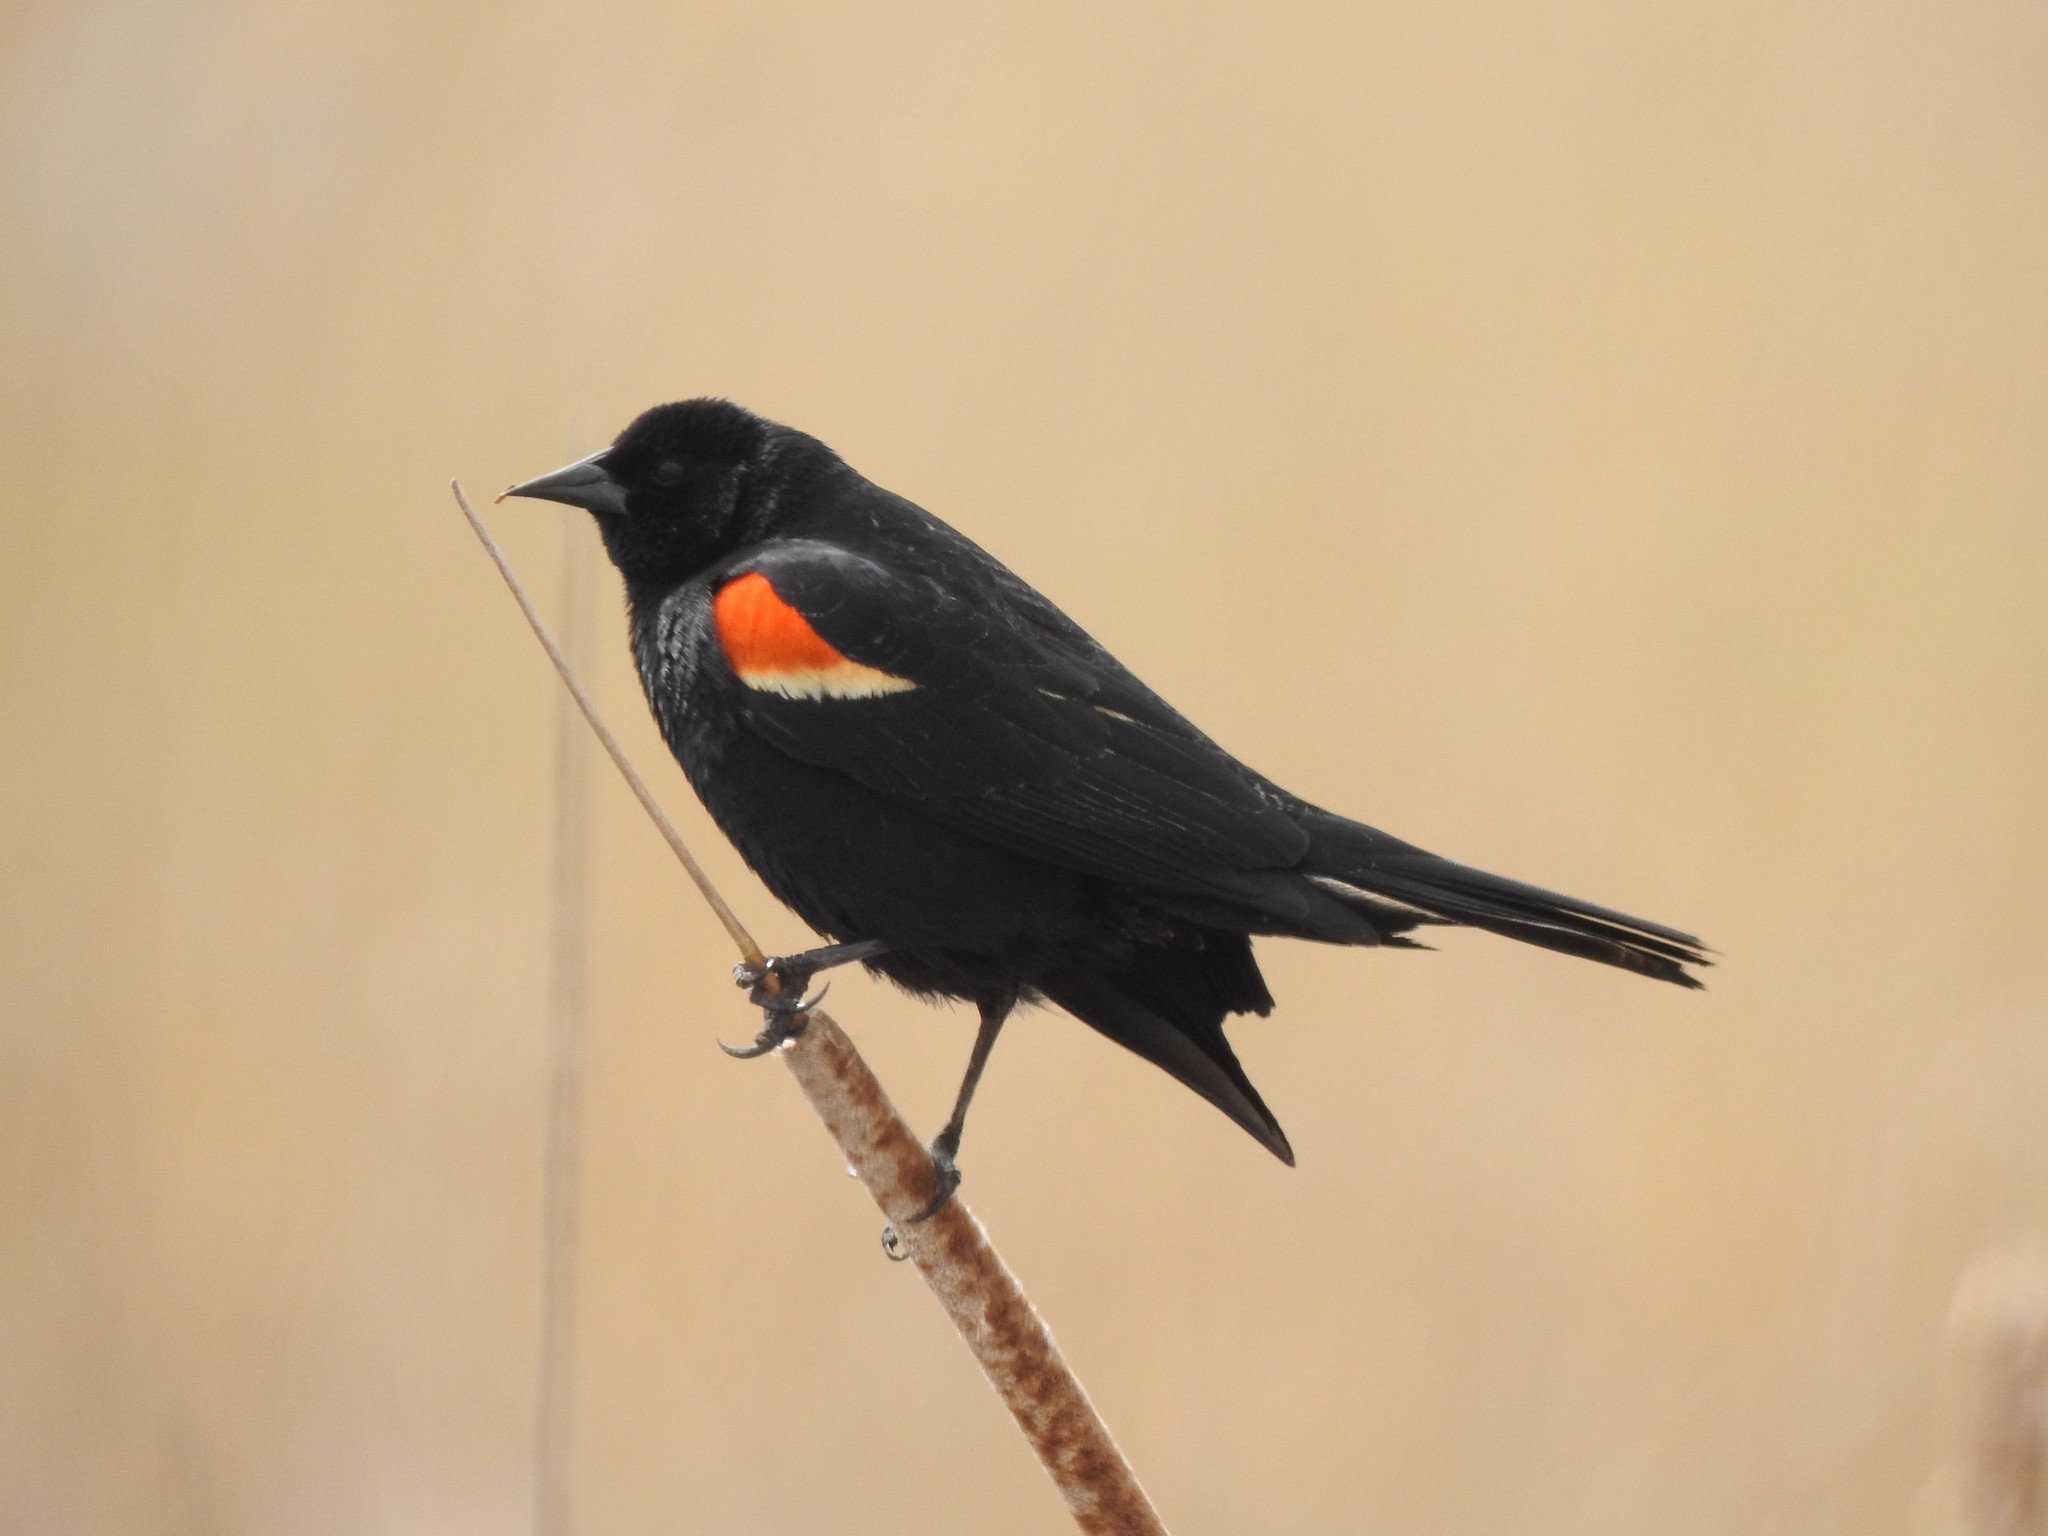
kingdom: Animalia
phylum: Chordata
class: Aves
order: Passeriformes
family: Icteridae
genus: Agelaius
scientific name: Agelaius phoeniceus
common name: Red-winged blackbird
